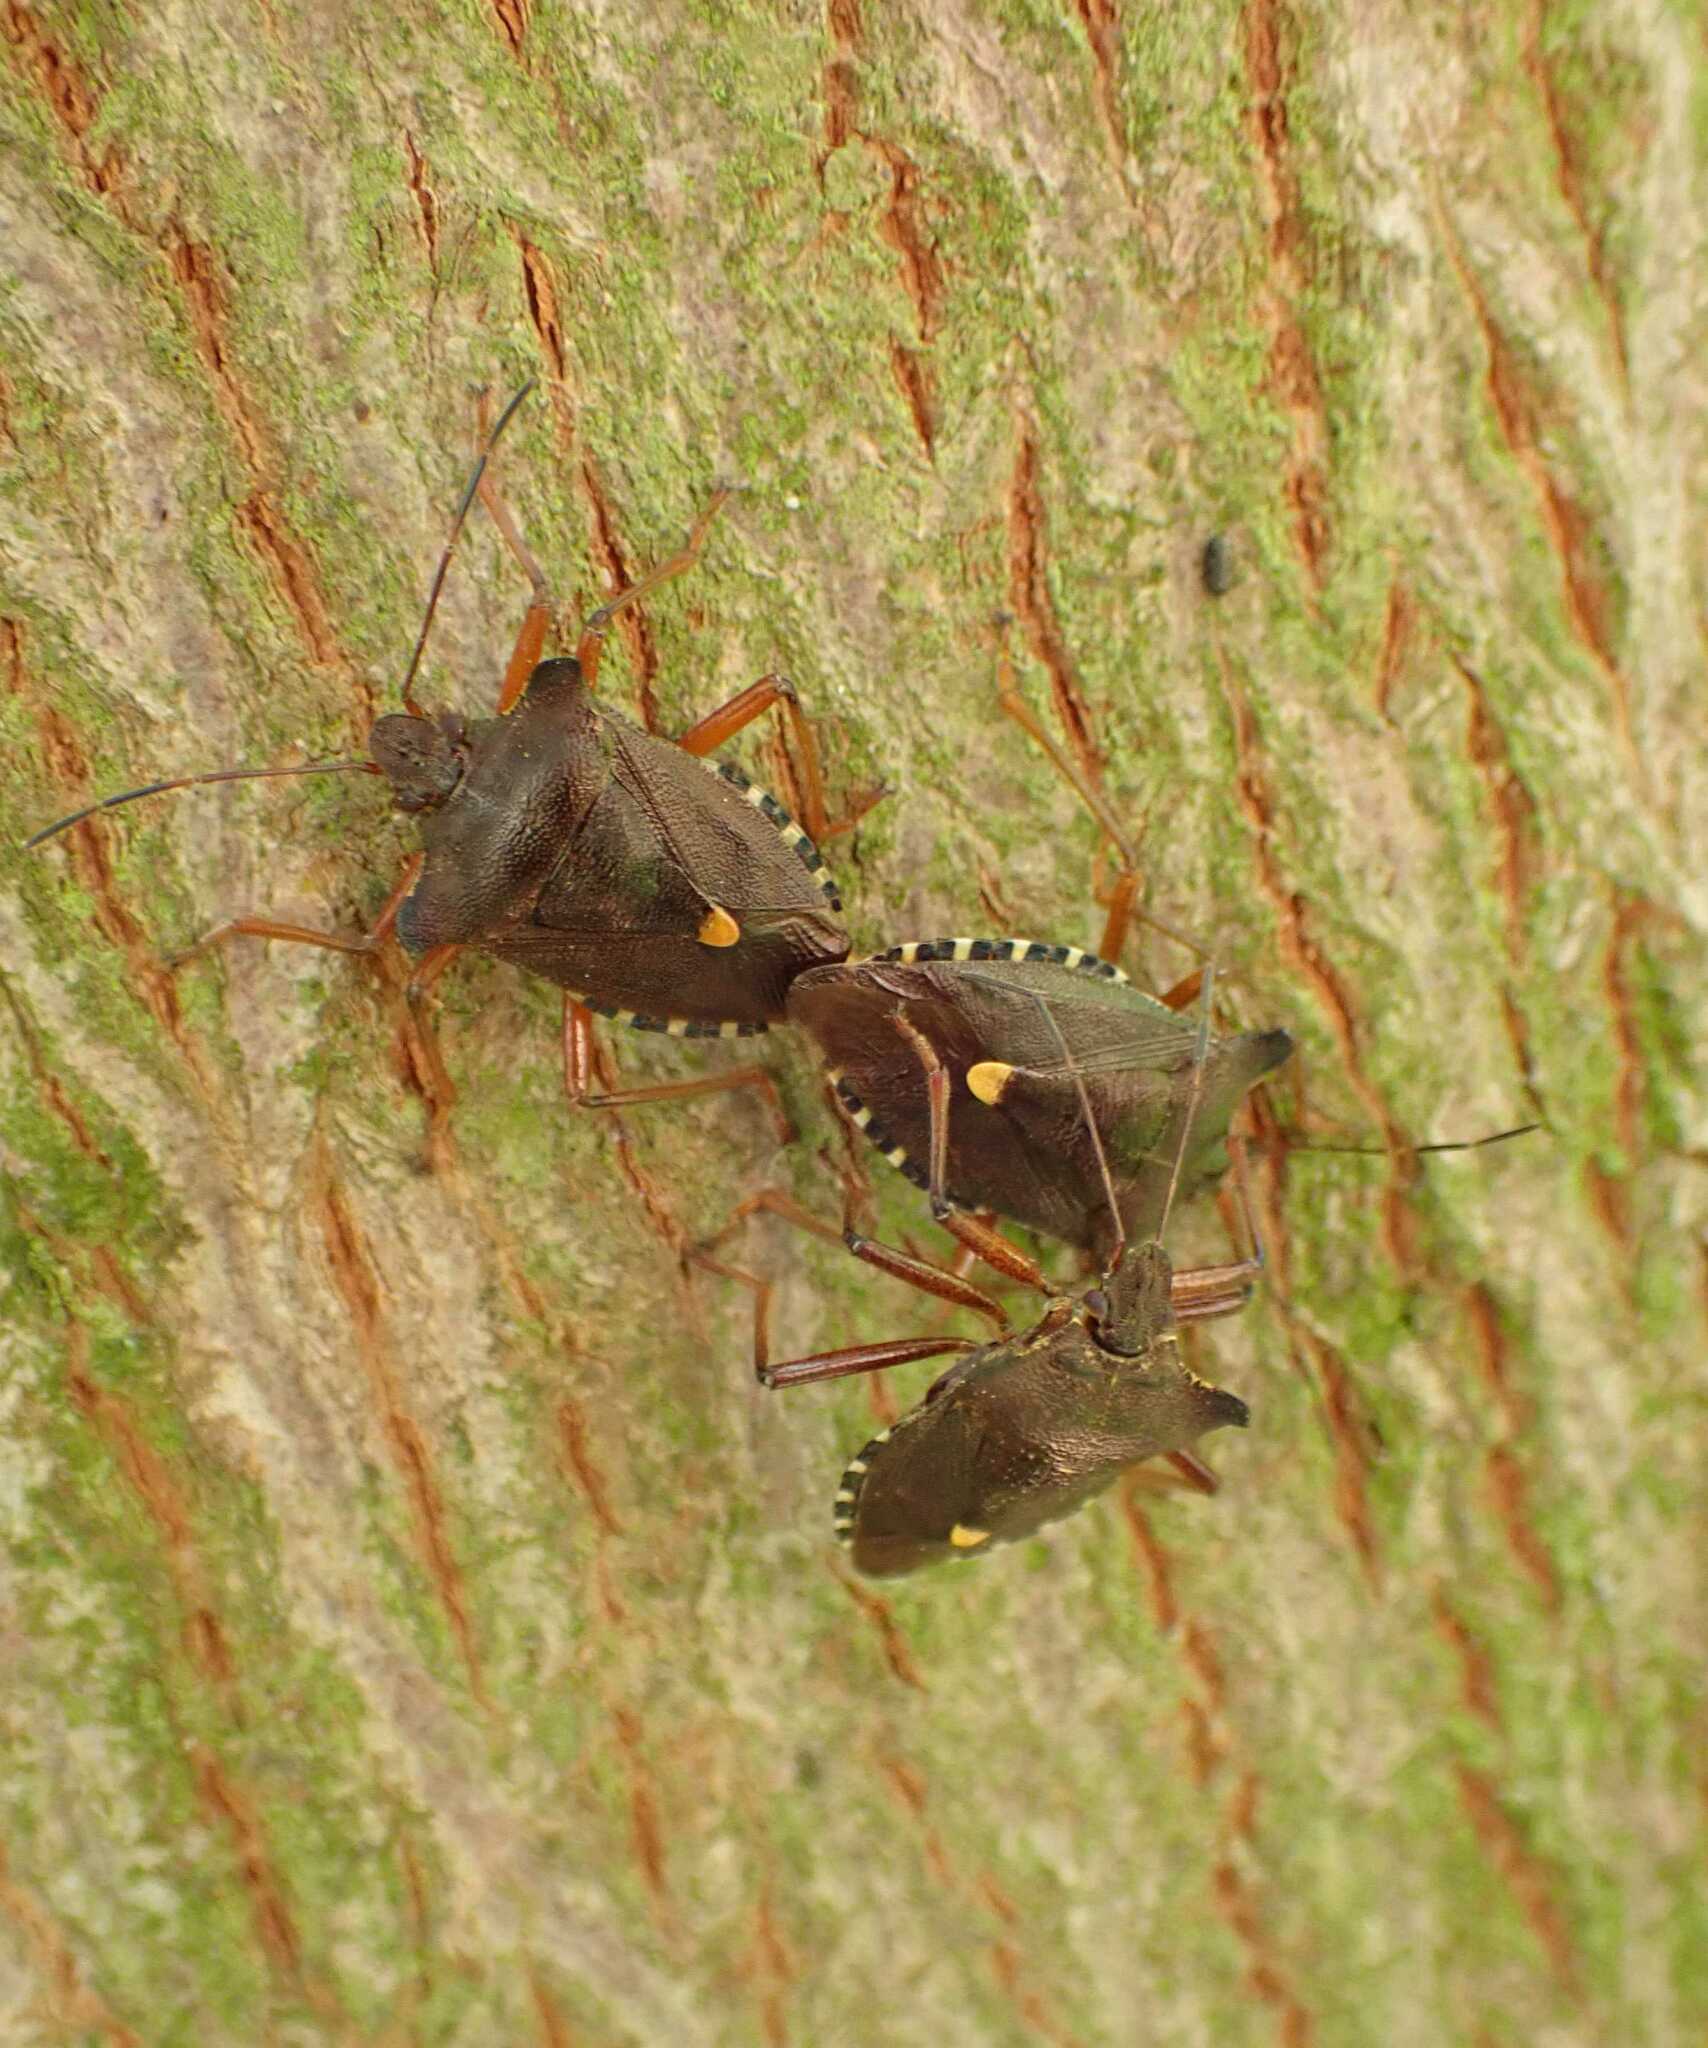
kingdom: Animalia
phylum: Arthropoda
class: Insecta
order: Hemiptera
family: Pentatomidae
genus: Pentatoma
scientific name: Pentatoma rufipes
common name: Forest bug
